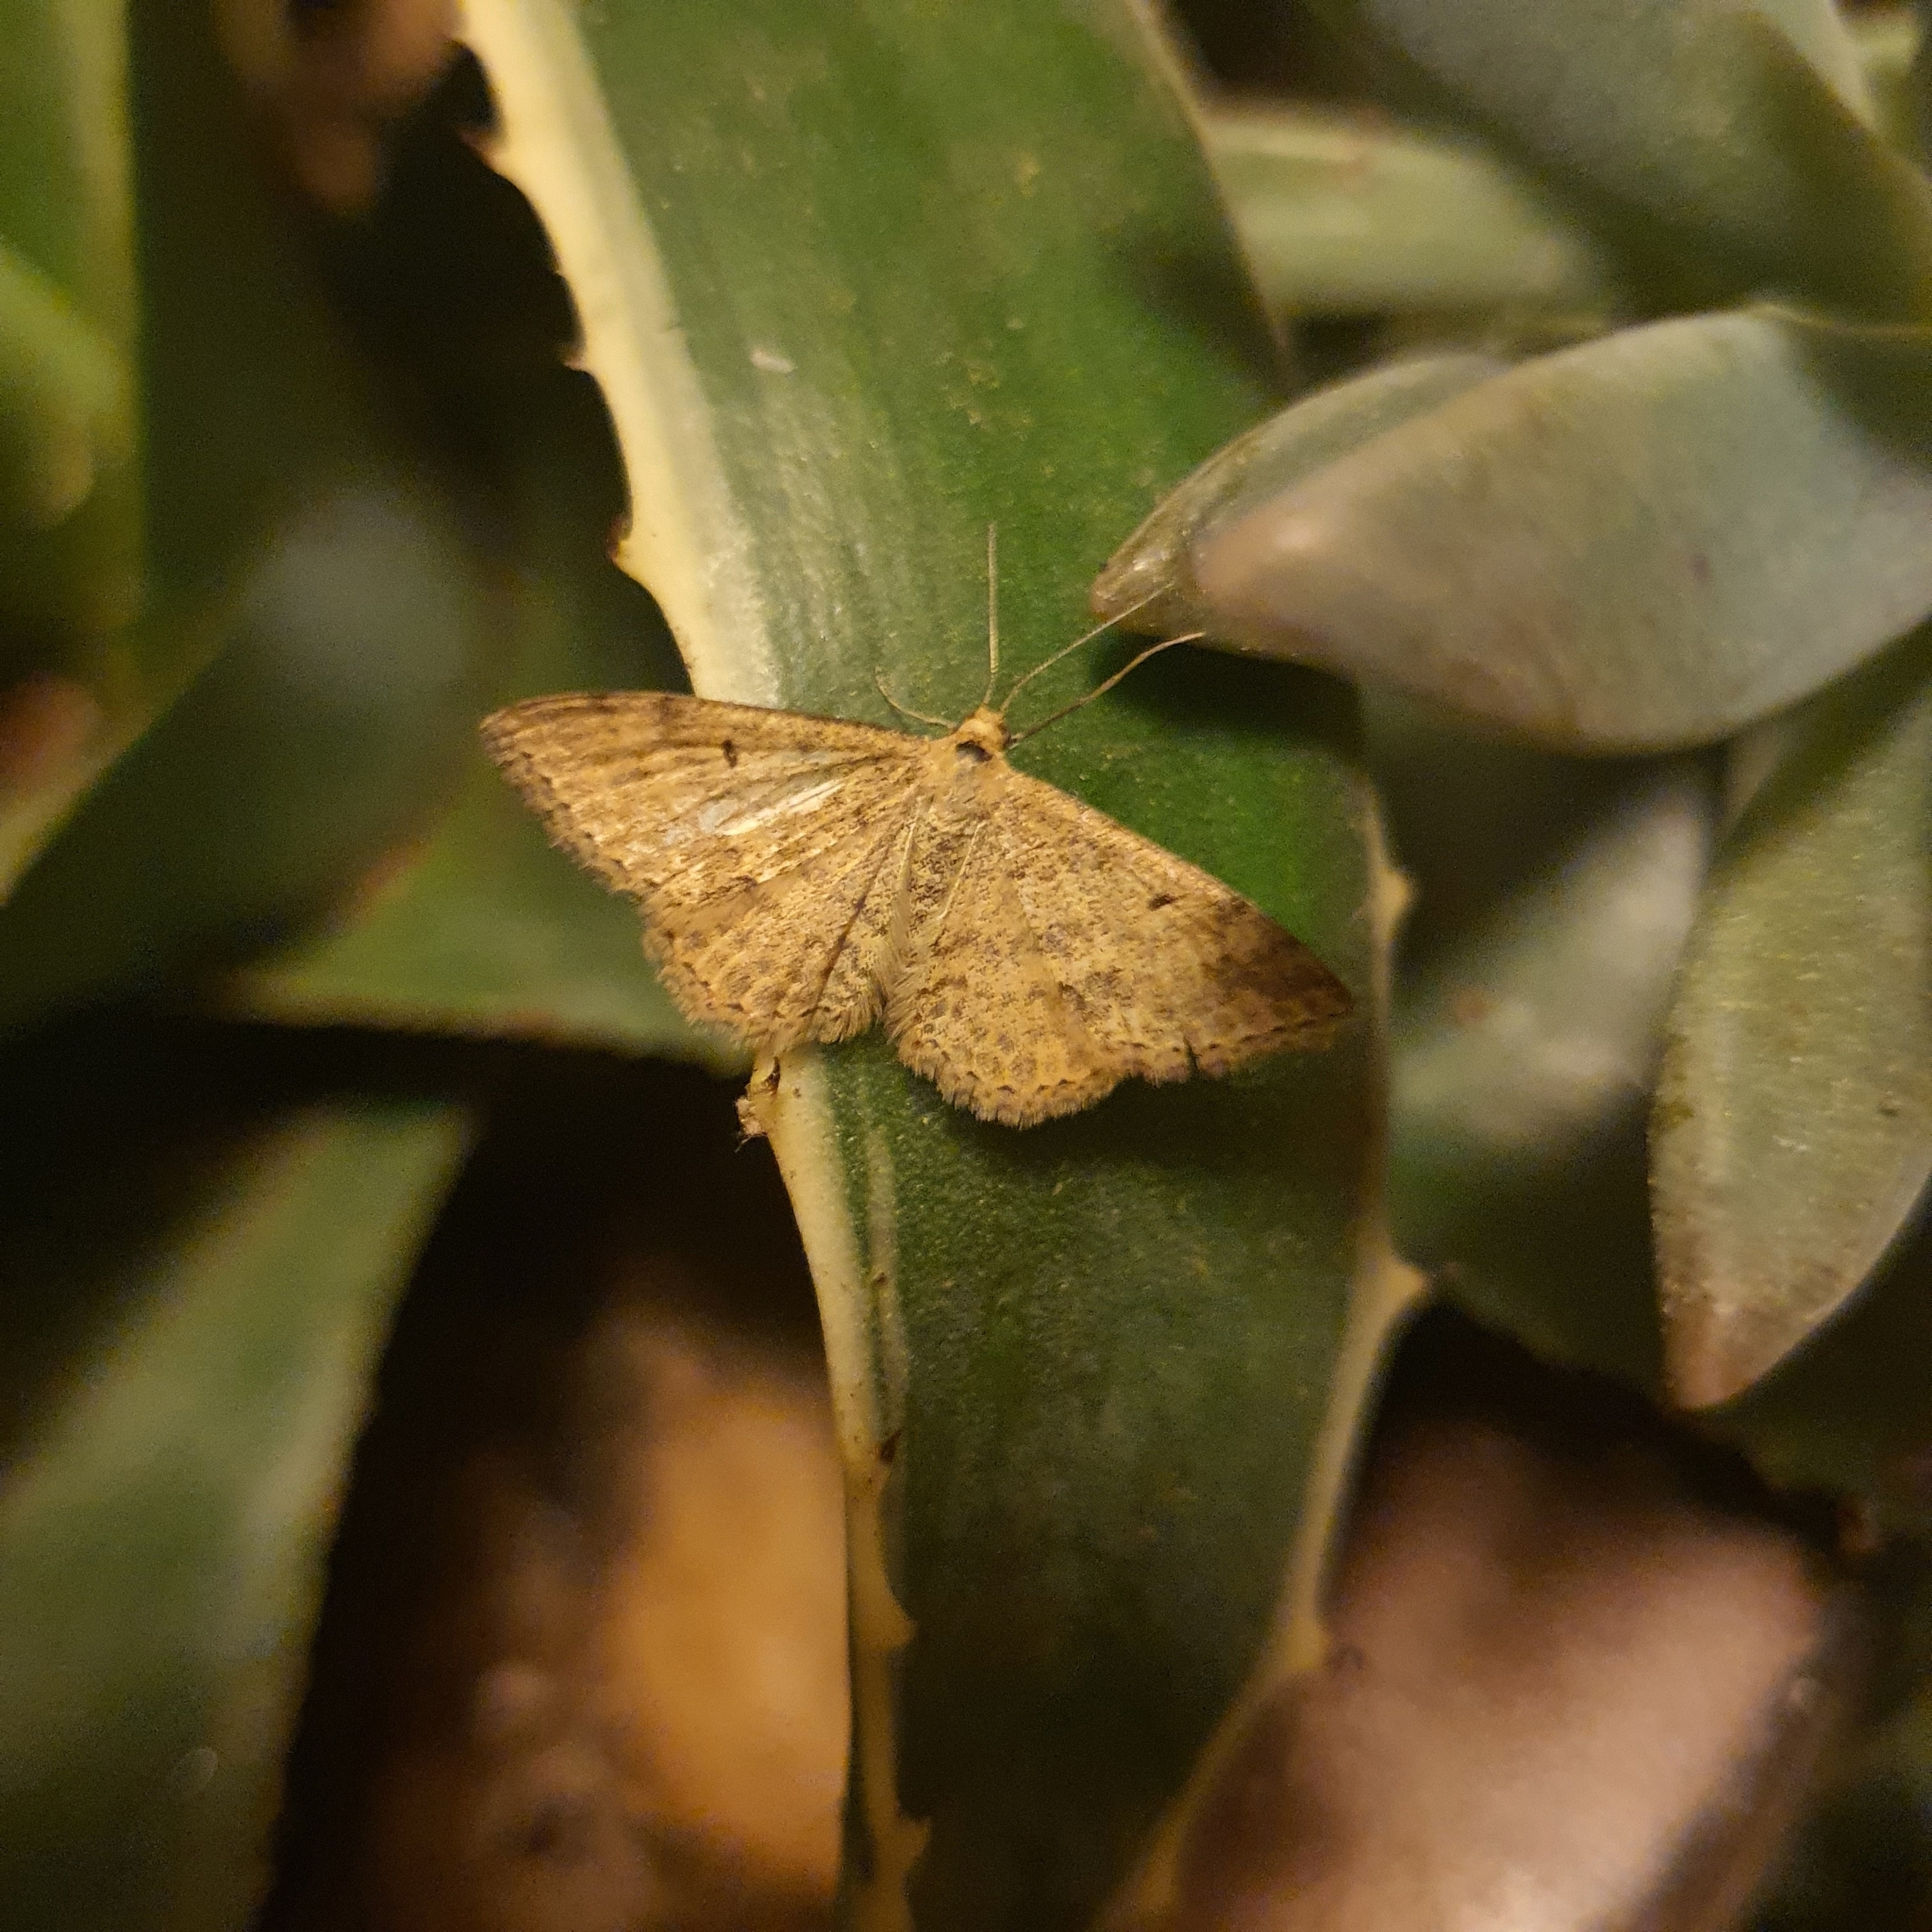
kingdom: Animalia
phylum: Arthropoda
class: Insecta
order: Lepidoptera
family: Geometridae
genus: Scopula
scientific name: Scopula rubraria
